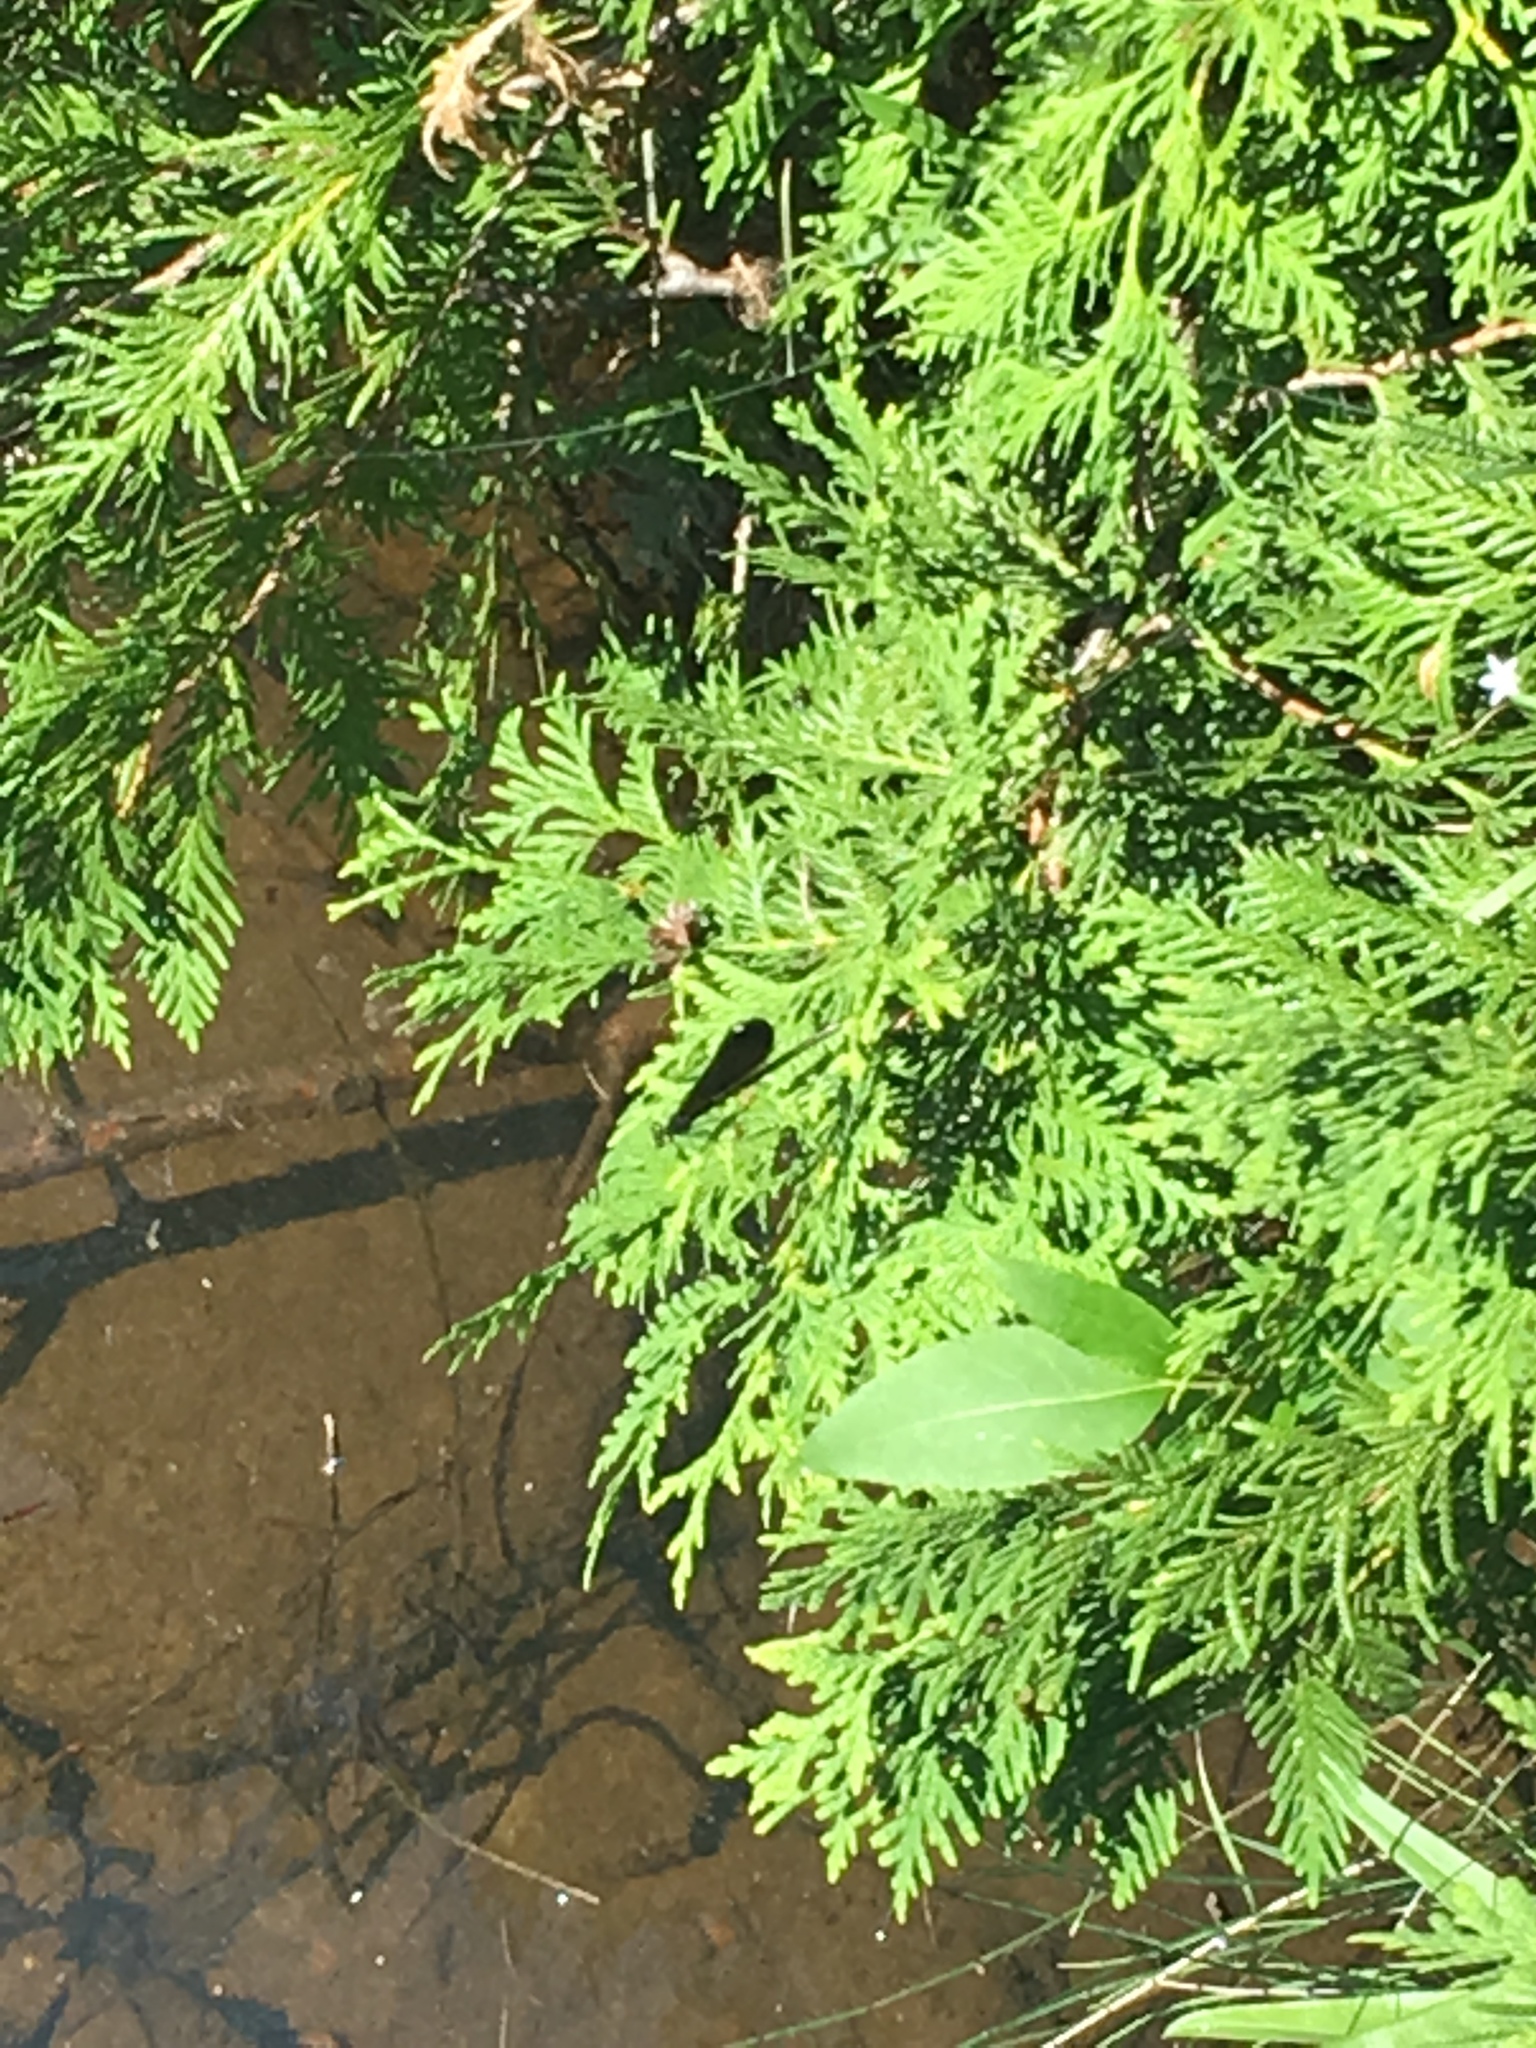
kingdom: Animalia
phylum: Arthropoda
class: Insecta
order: Odonata
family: Calopterygidae
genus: Calopteryx
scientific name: Calopteryx maculata
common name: Ebony jewelwing
